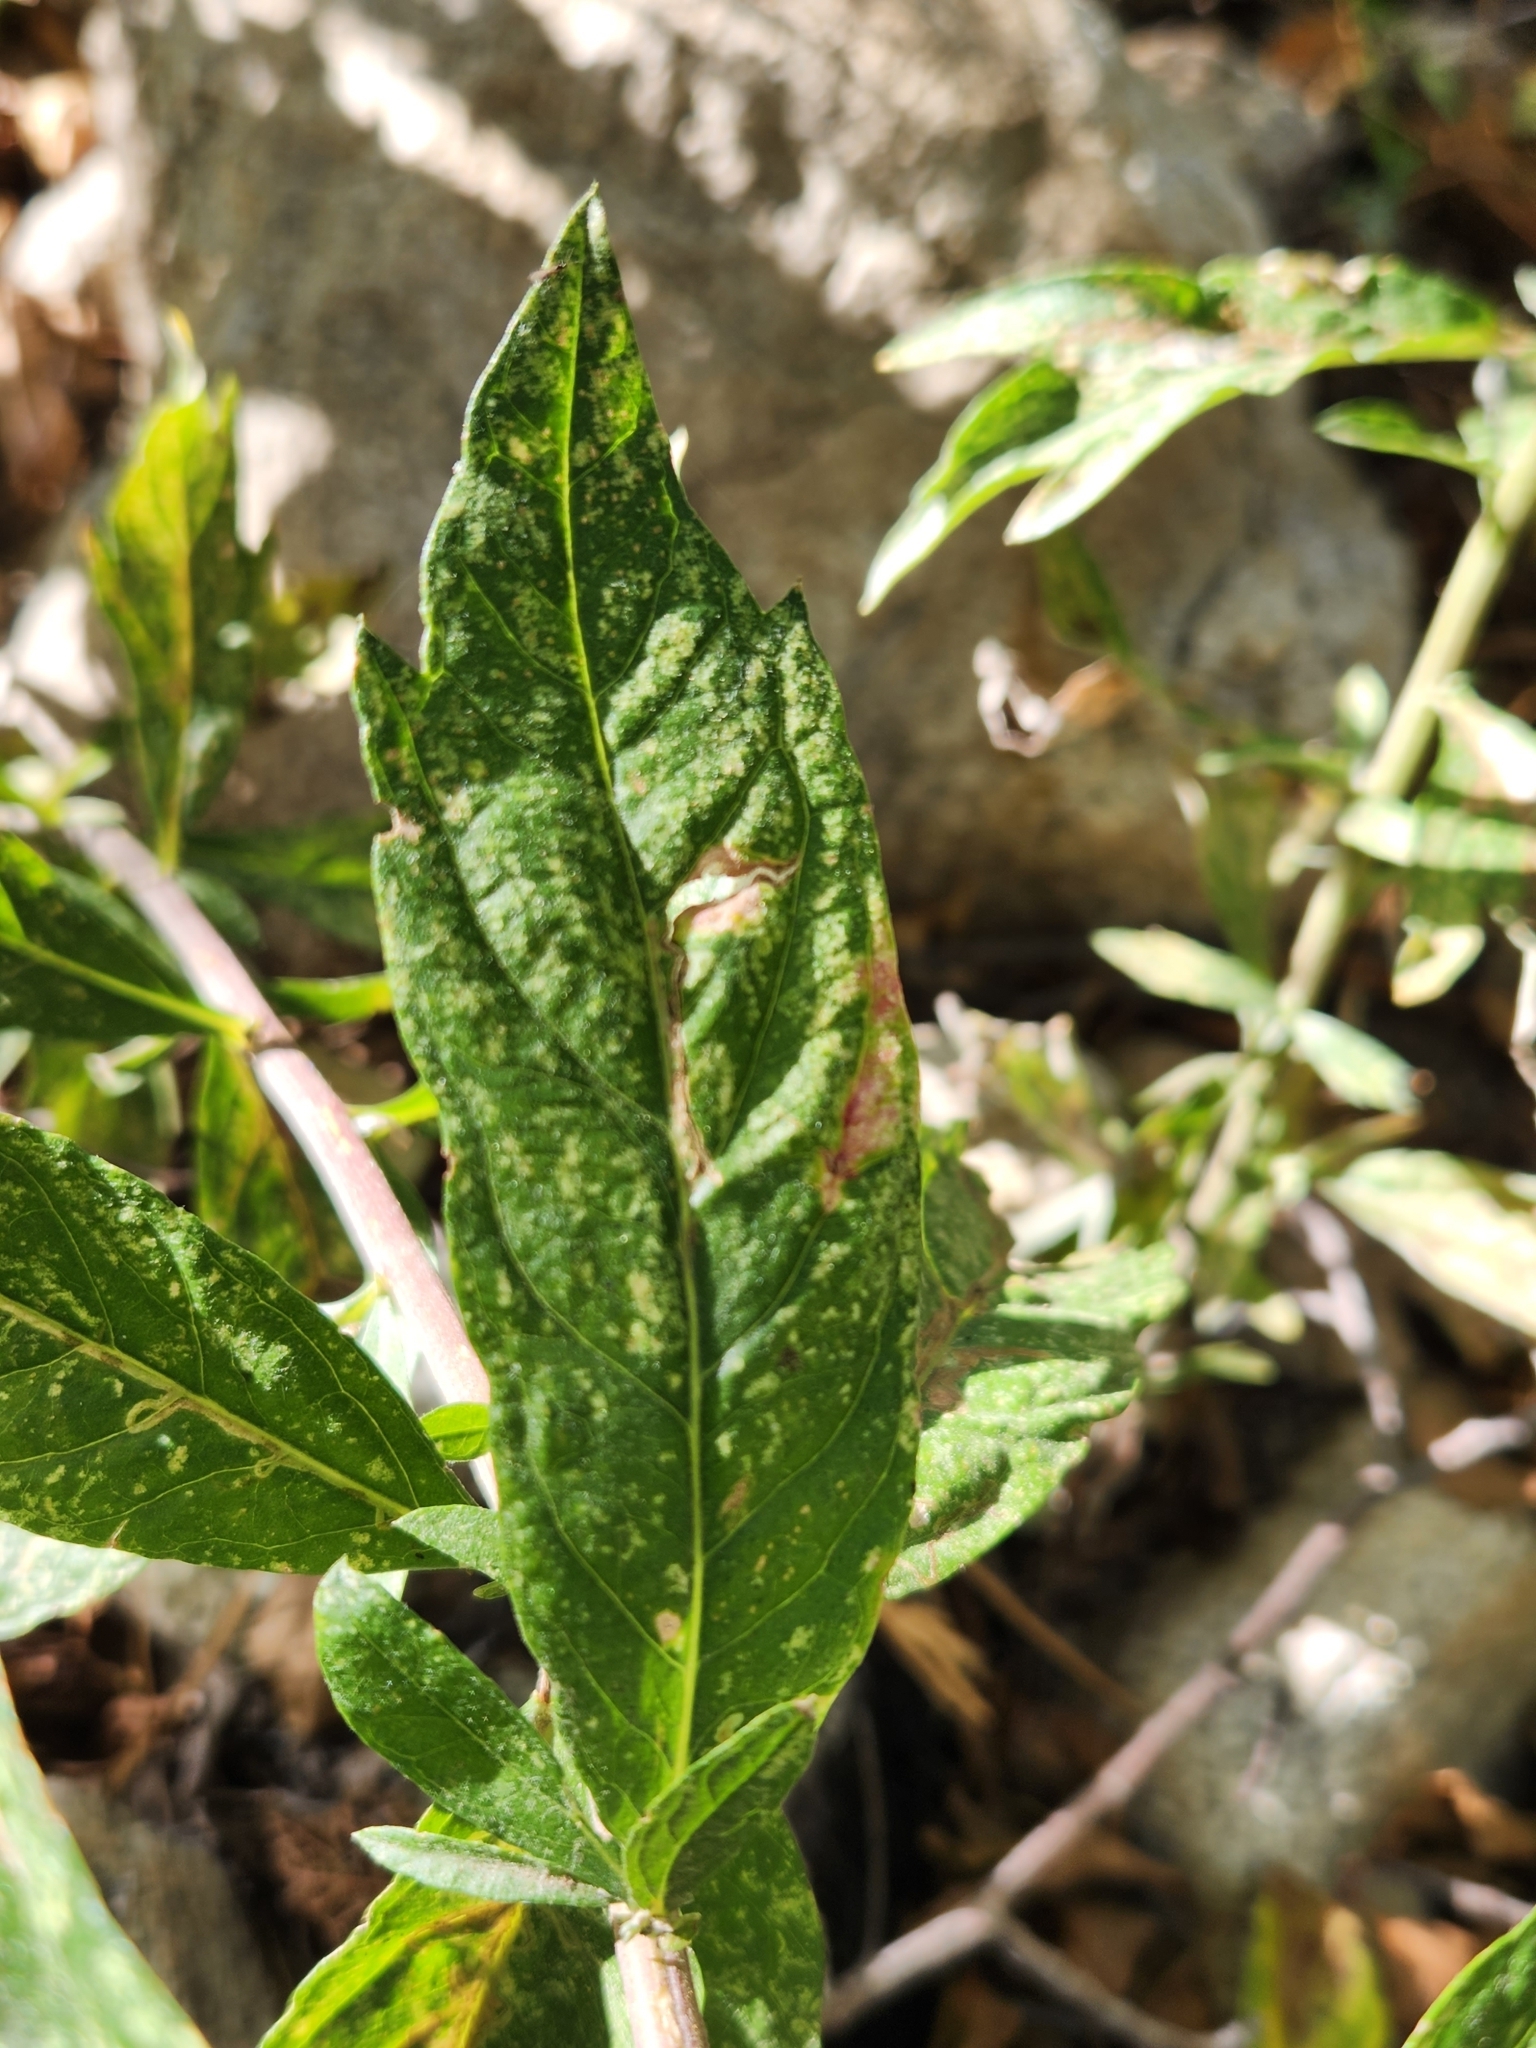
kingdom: Plantae
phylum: Tracheophyta
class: Magnoliopsida
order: Asterales
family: Asteraceae
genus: Artemisia
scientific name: Artemisia douglasiana
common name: Northwest mugwort
